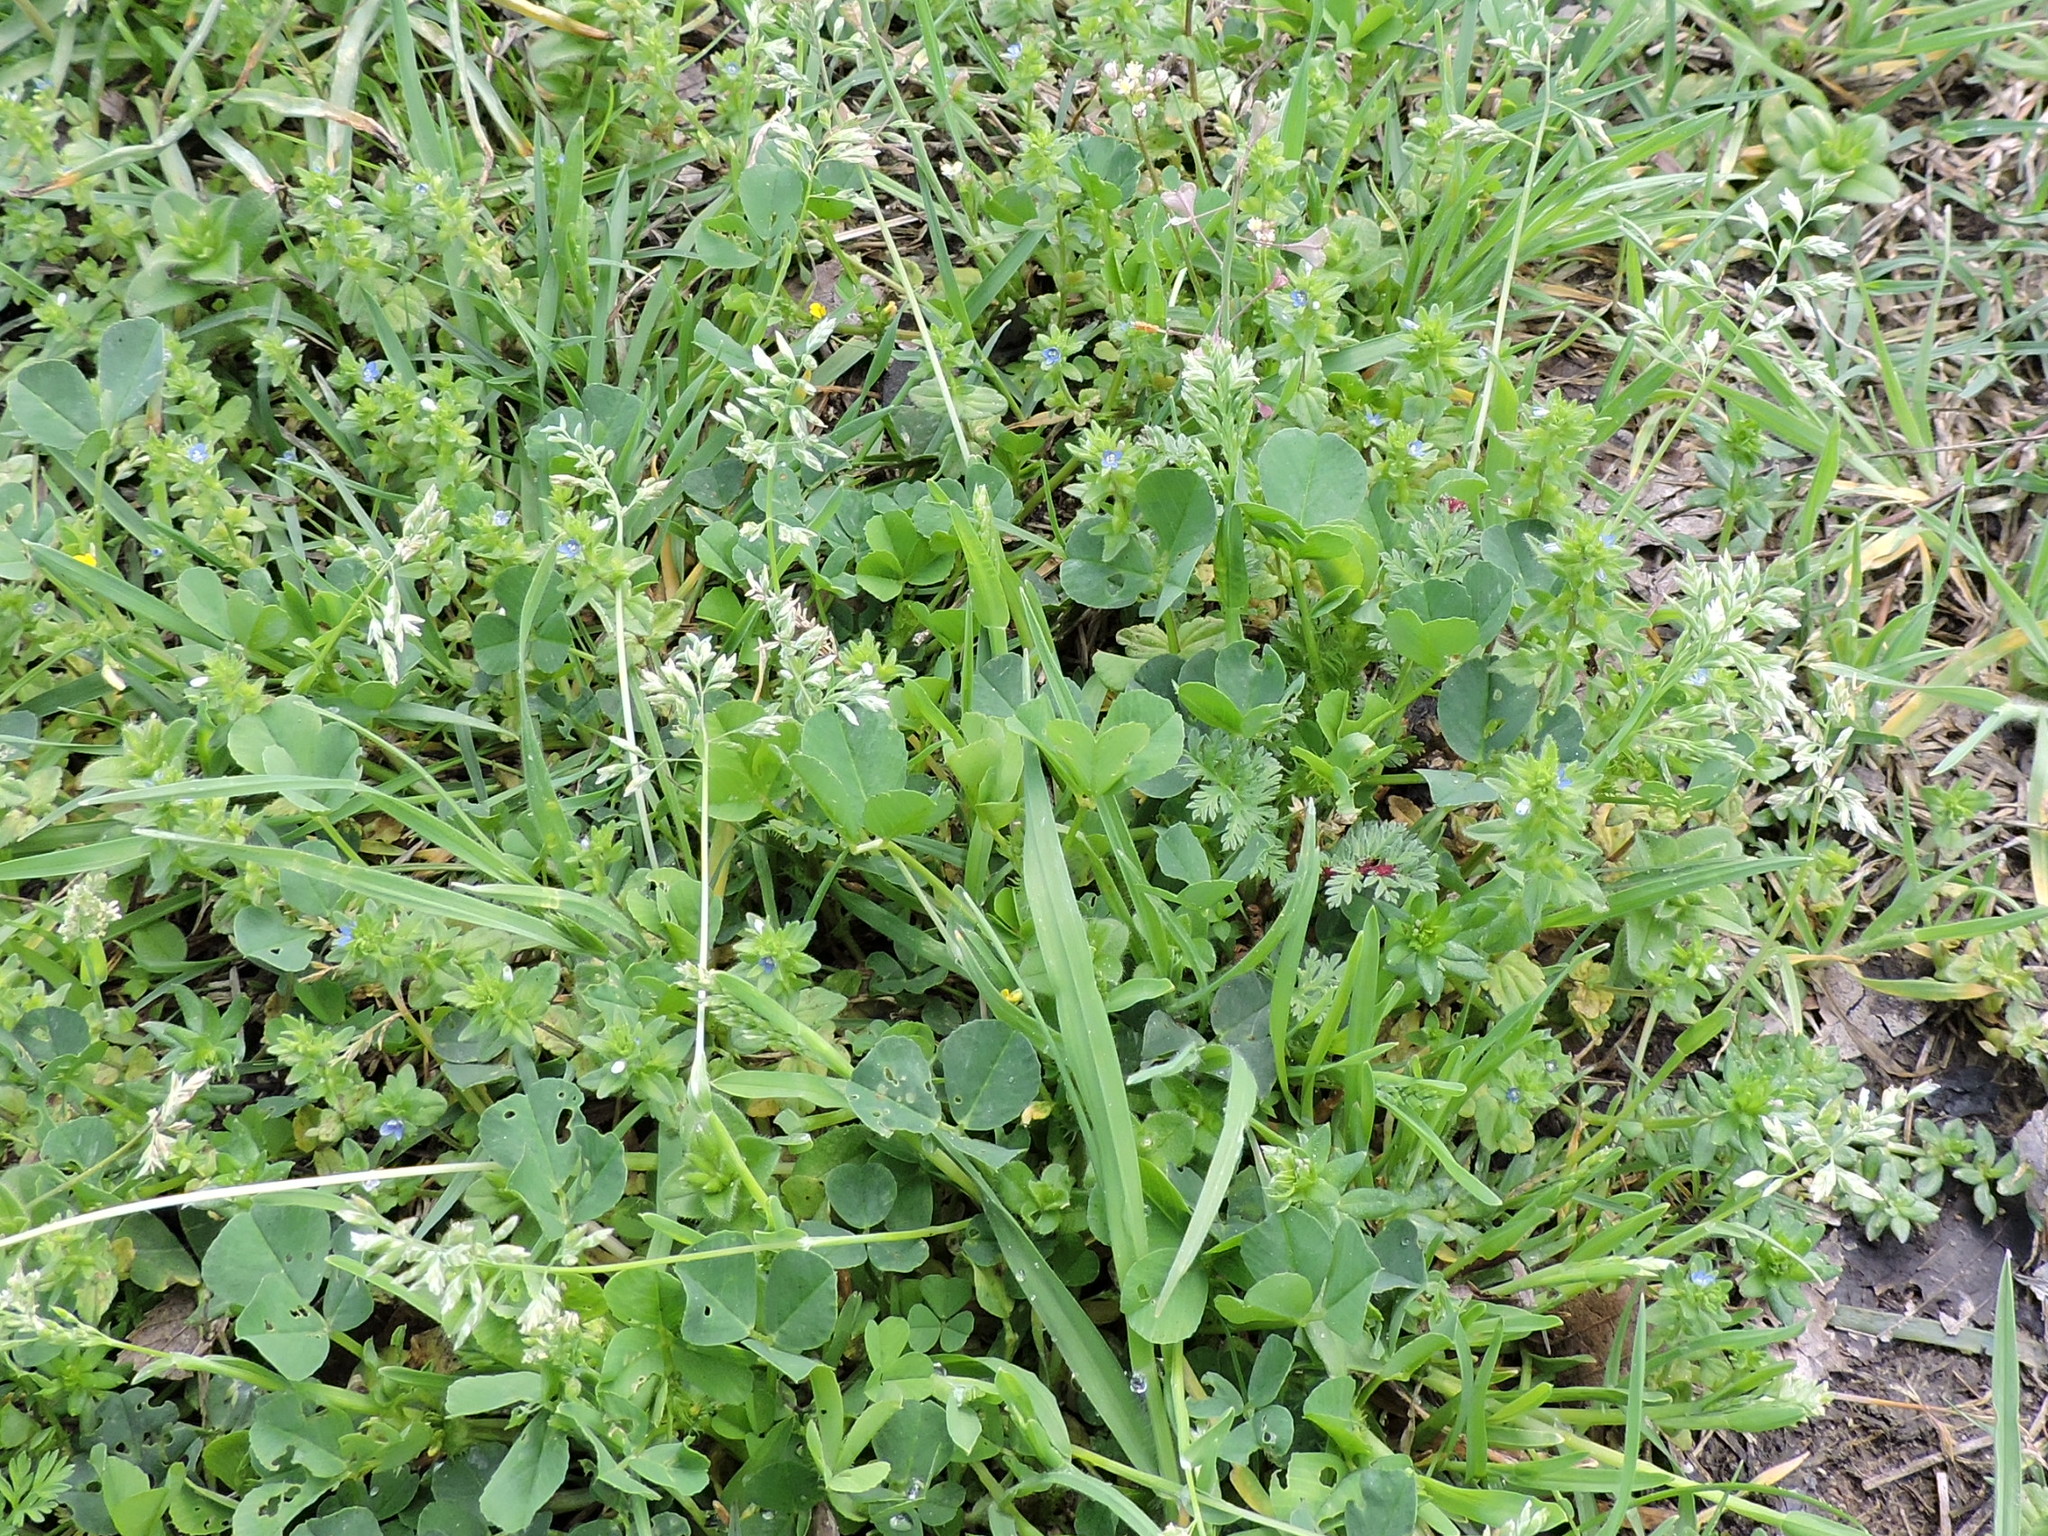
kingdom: Plantae
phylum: Tracheophyta
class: Liliopsida
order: Poales
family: Poaceae
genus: Poa
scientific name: Poa annua
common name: Annual bluegrass
